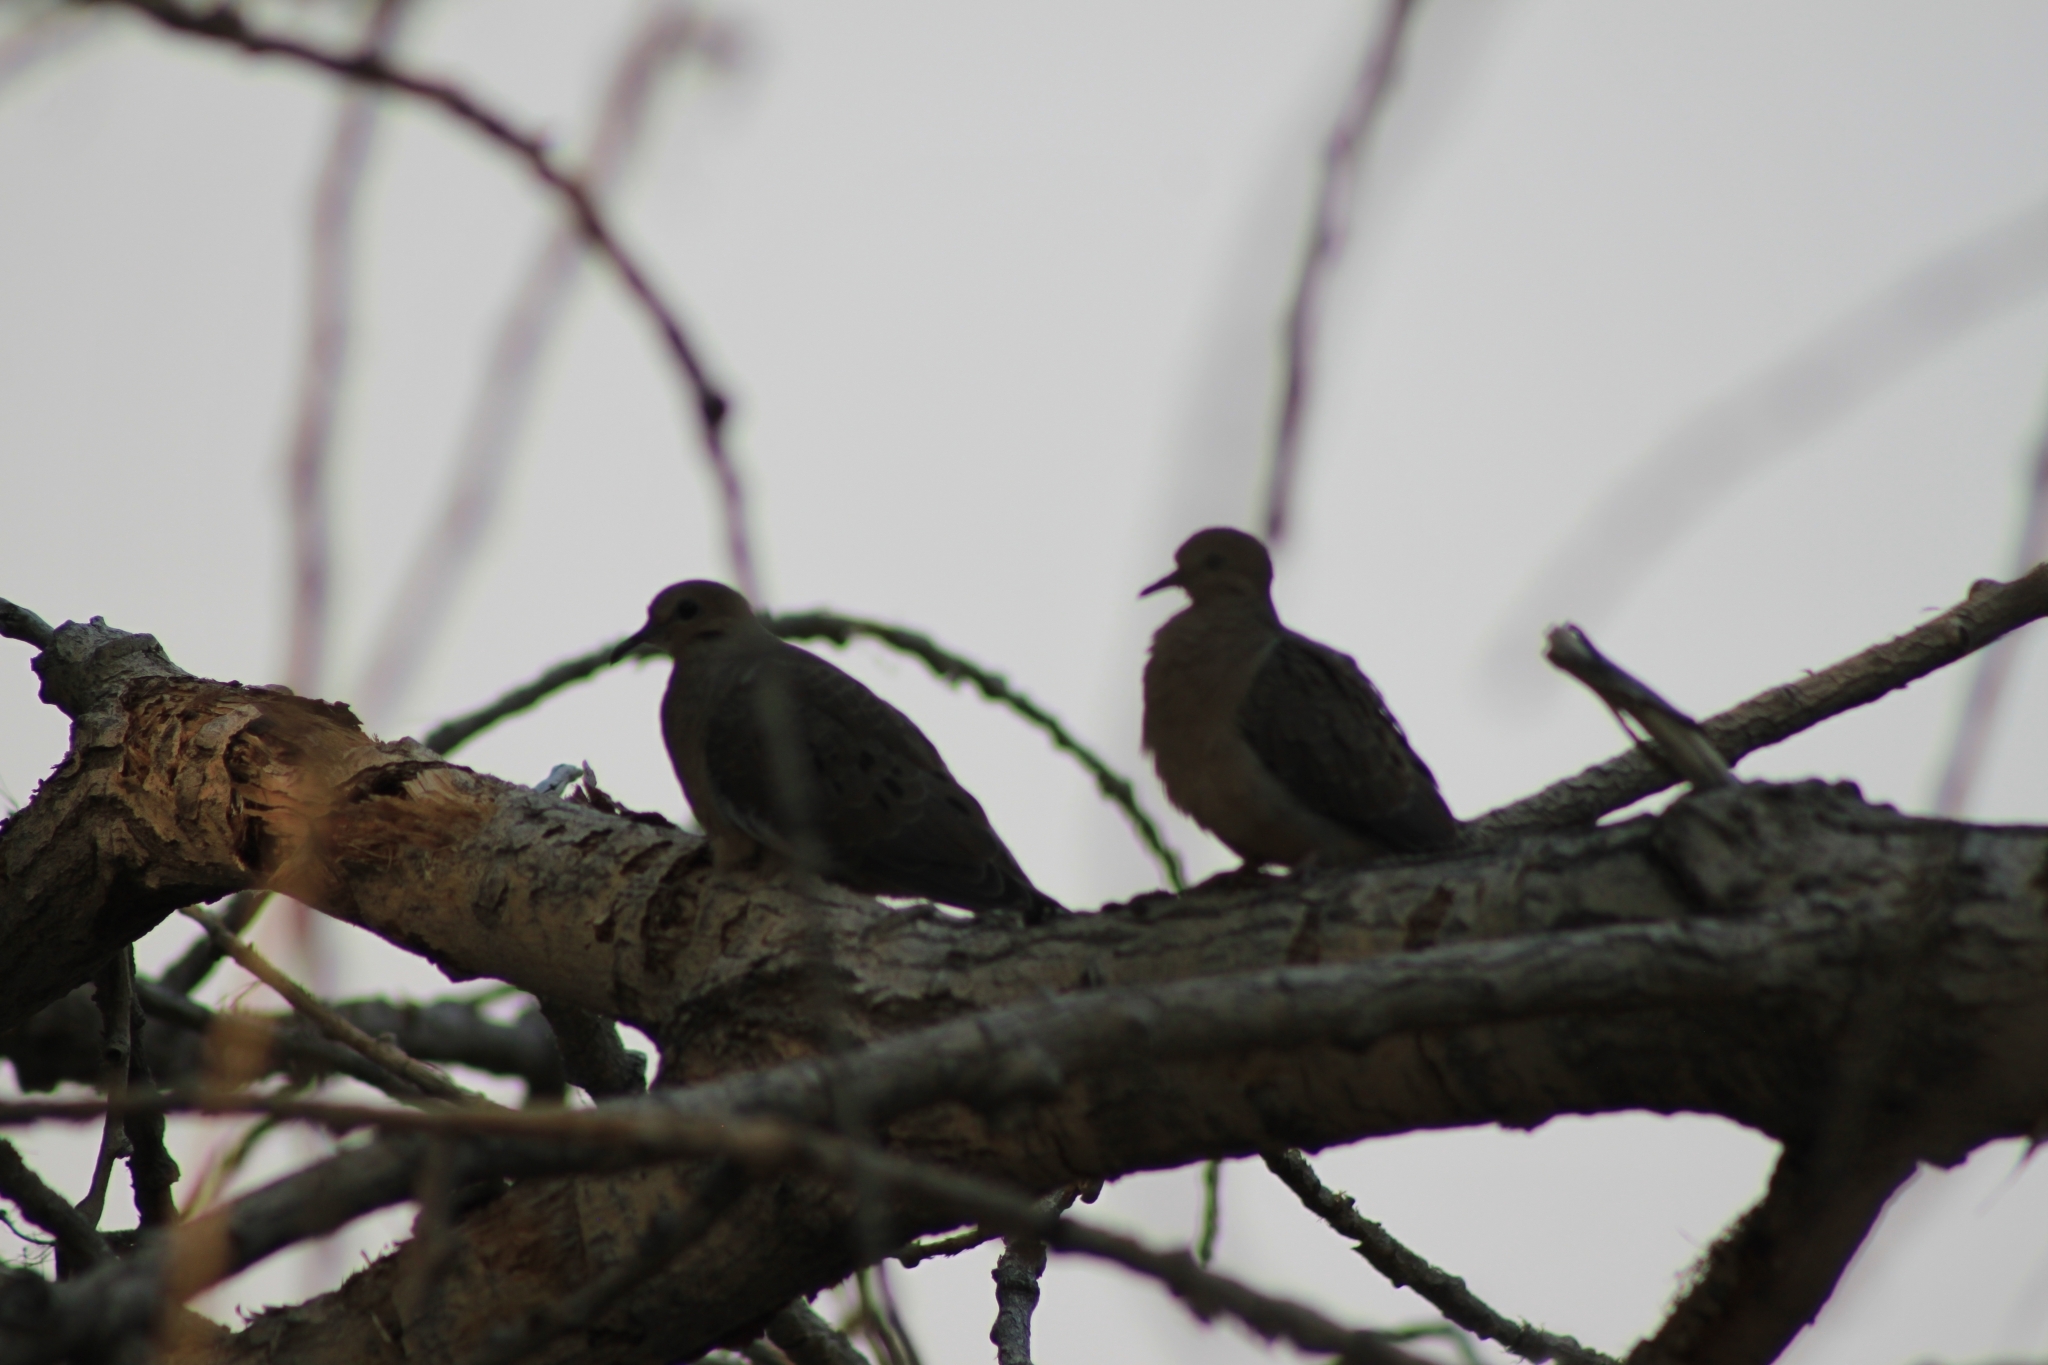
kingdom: Animalia
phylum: Chordata
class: Aves
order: Columbiformes
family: Columbidae
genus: Zenaida
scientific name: Zenaida macroura
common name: Mourning dove
